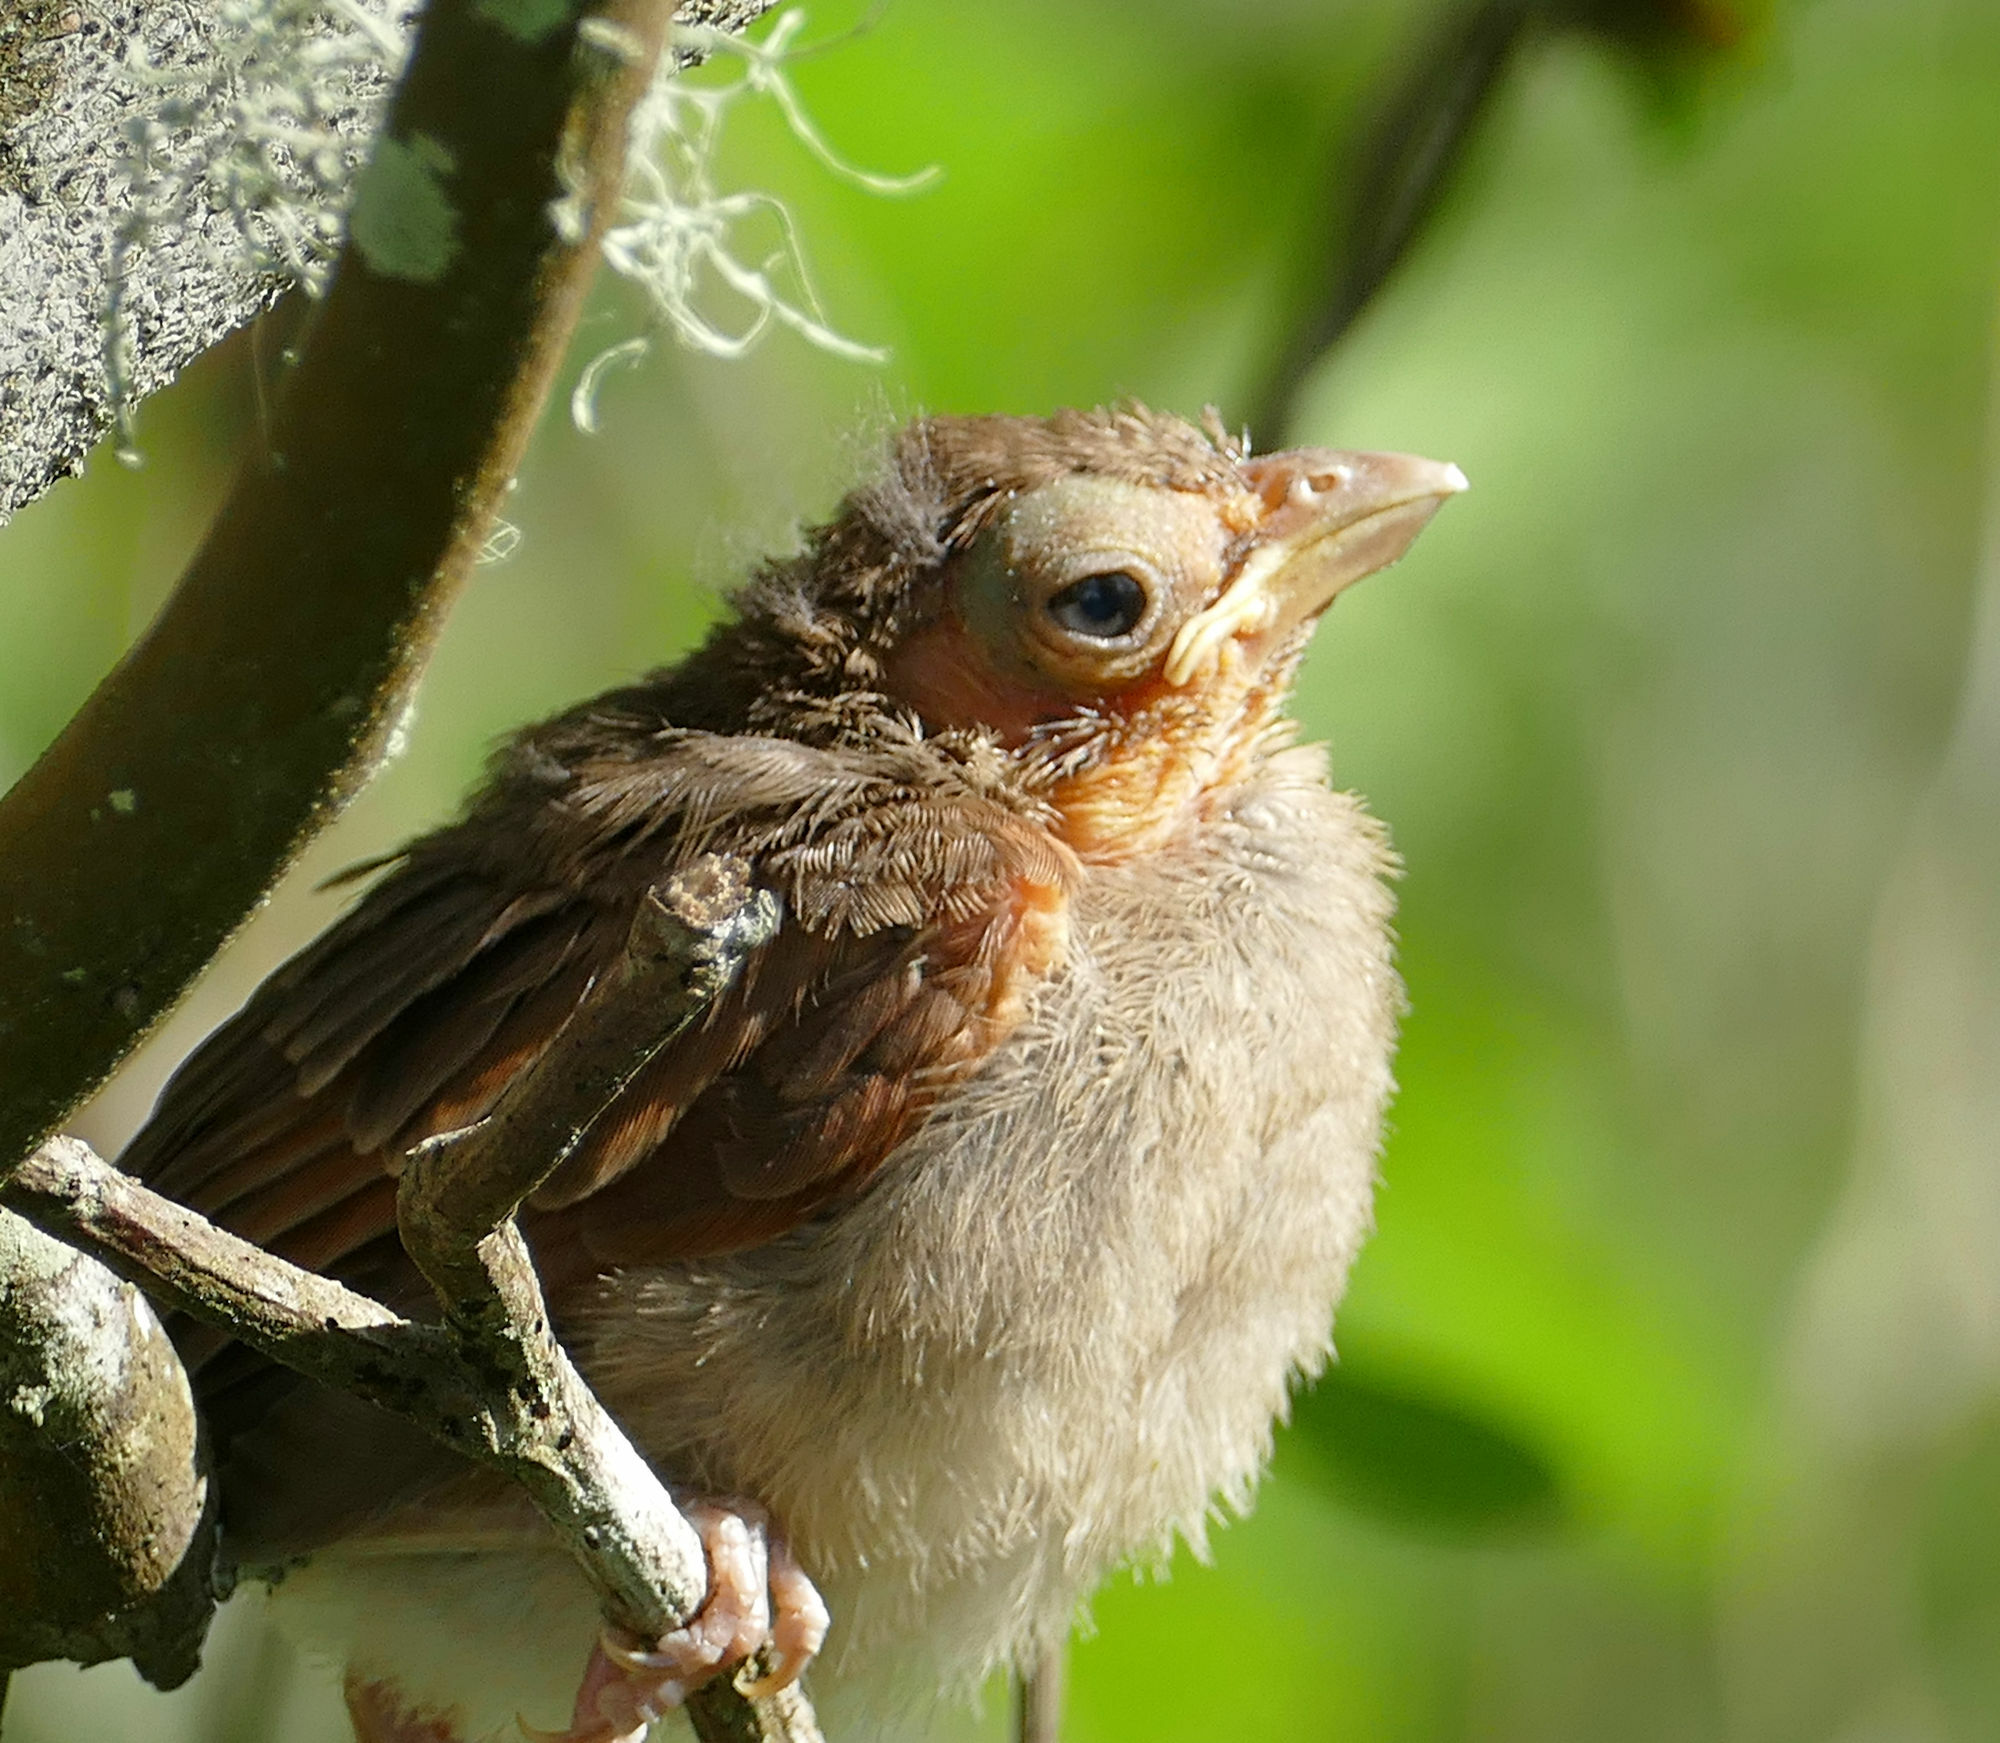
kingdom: Animalia
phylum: Chordata
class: Aves
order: Passeriformes
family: Cardinalidae
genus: Cardinalis
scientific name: Cardinalis cardinalis
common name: Northern cardinal
